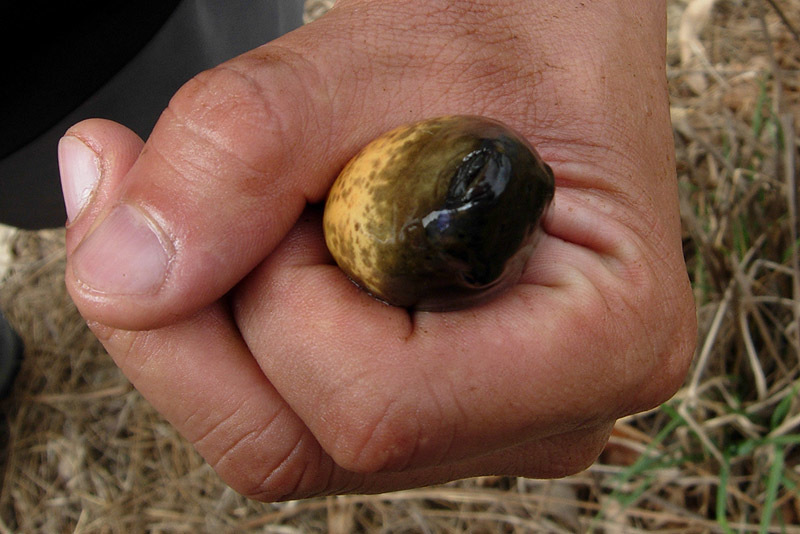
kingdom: Animalia
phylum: Chordata
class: Amphibia
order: Anura
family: Ranidae
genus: Lithobates
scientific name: Lithobates catesbeianus
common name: American bullfrog
